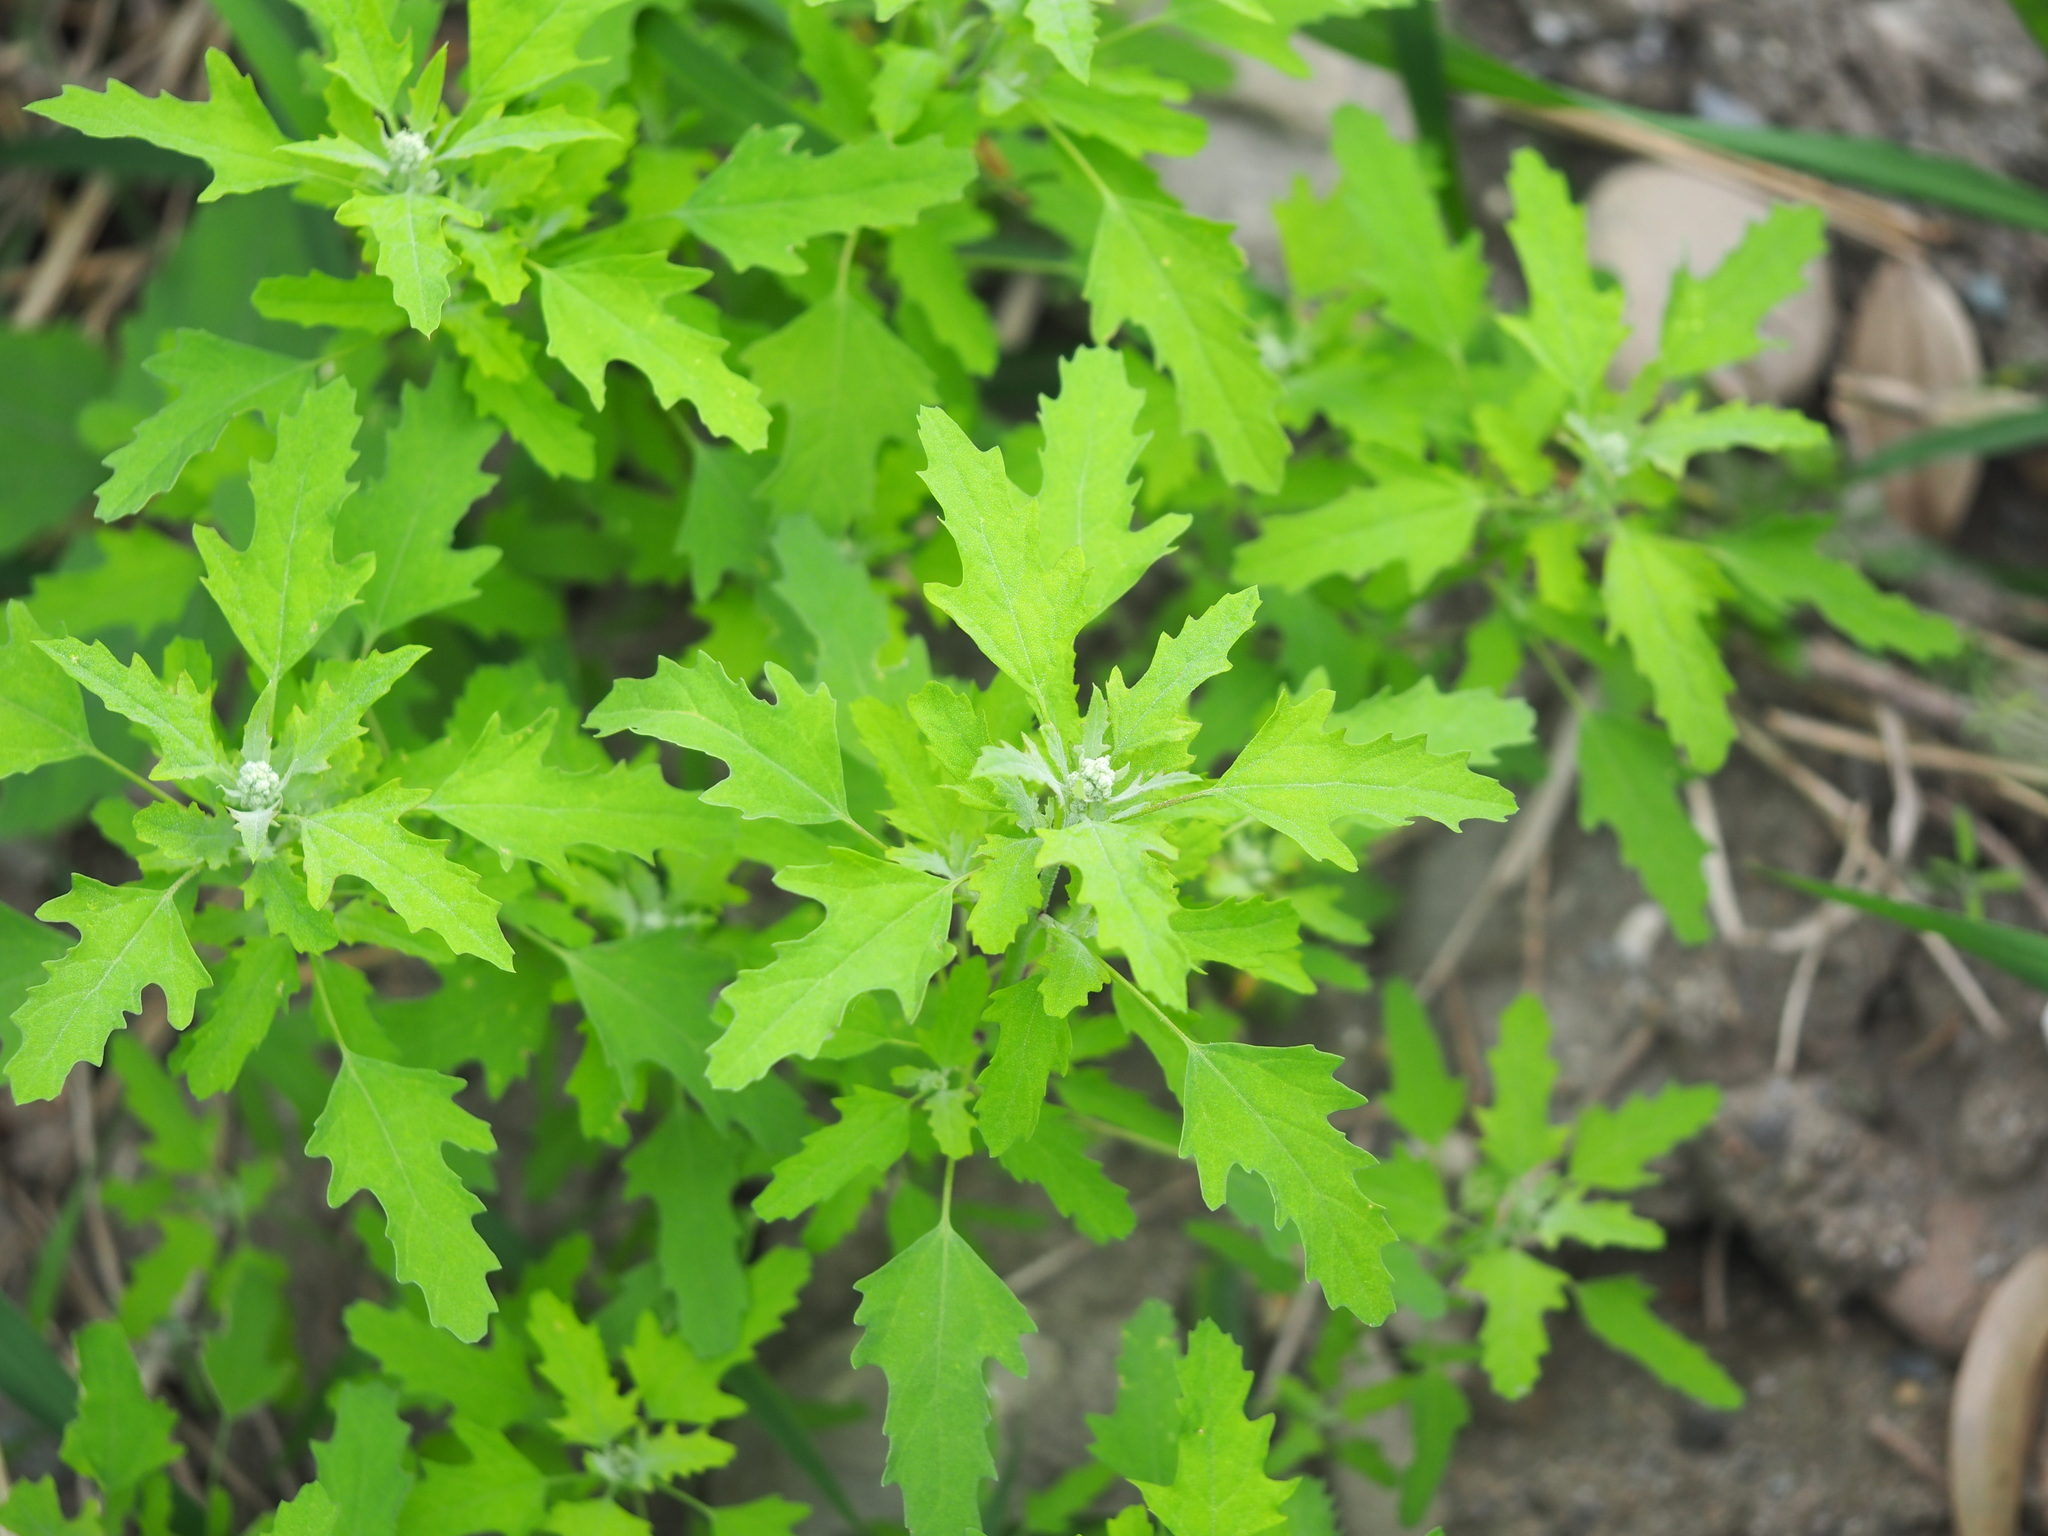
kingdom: Plantae
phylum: Tracheophyta
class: Magnoliopsida
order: Caryophyllales
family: Amaranthaceae
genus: Chenopodium
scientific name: Chenopodium ficifolium
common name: Fig-leaved goosefoot
